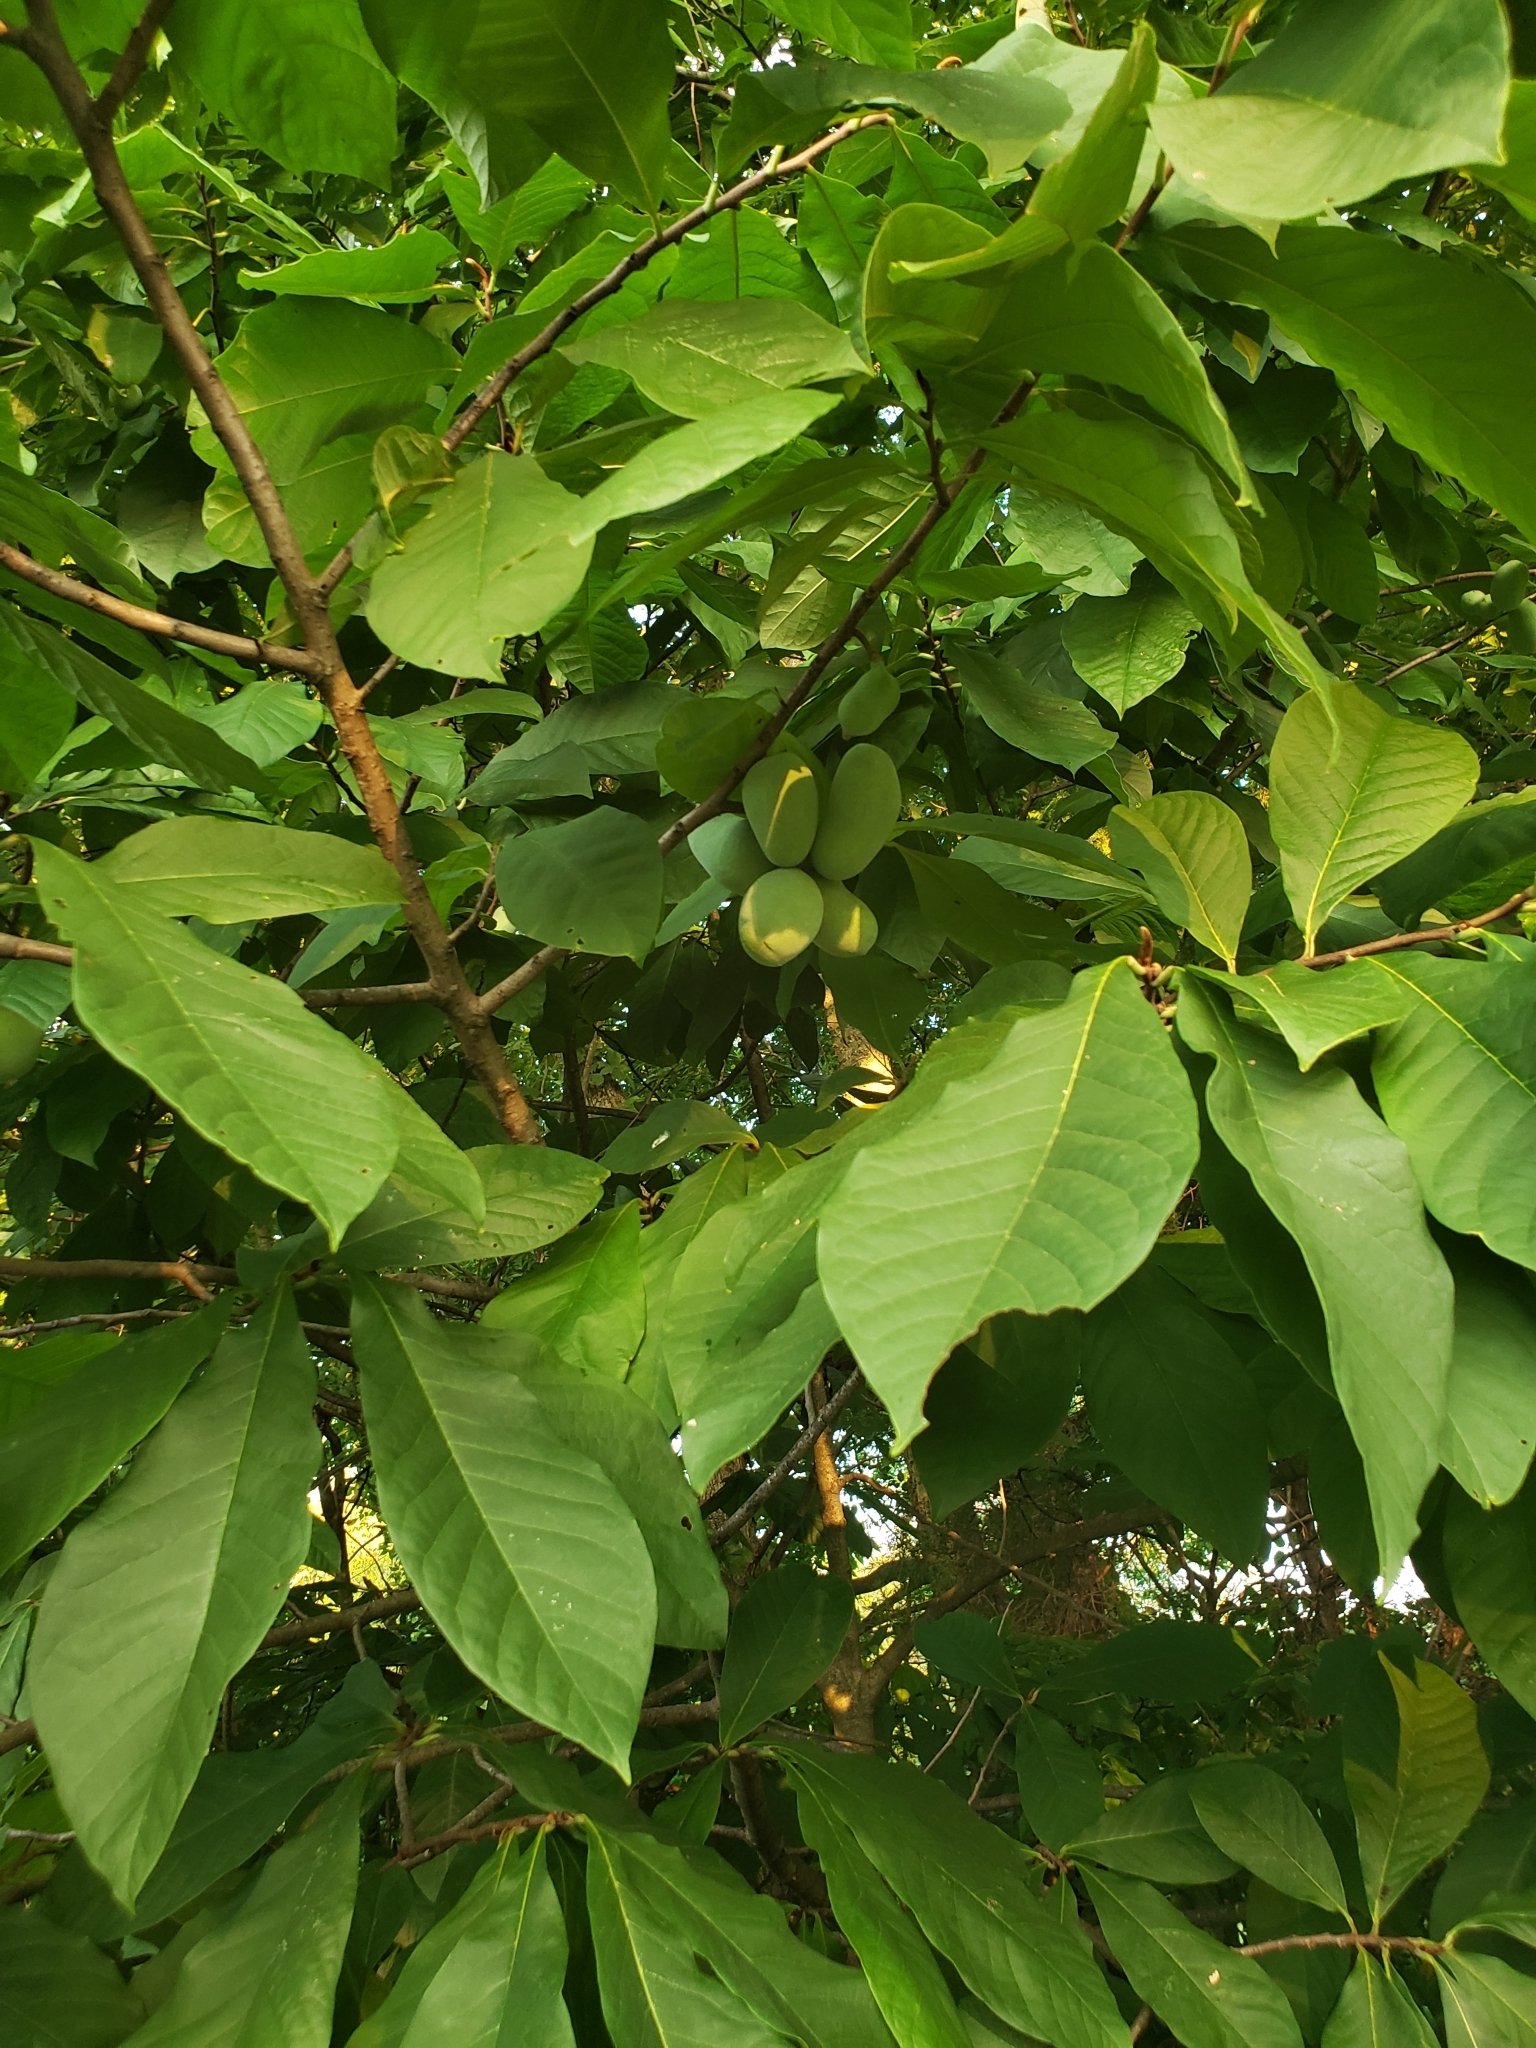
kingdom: Plantae
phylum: Tracheophyta
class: Magnoliopsida
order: Magnoliales
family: Annonaceae
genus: Asimina
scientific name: Asimina triloba
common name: Dog-banana
